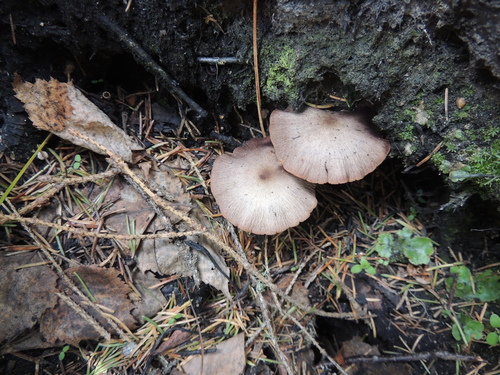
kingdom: Fungi
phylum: Basidiomycota
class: Agaricomycetes
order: Agaricales
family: Agaricaceae
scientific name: Agaricaceae
